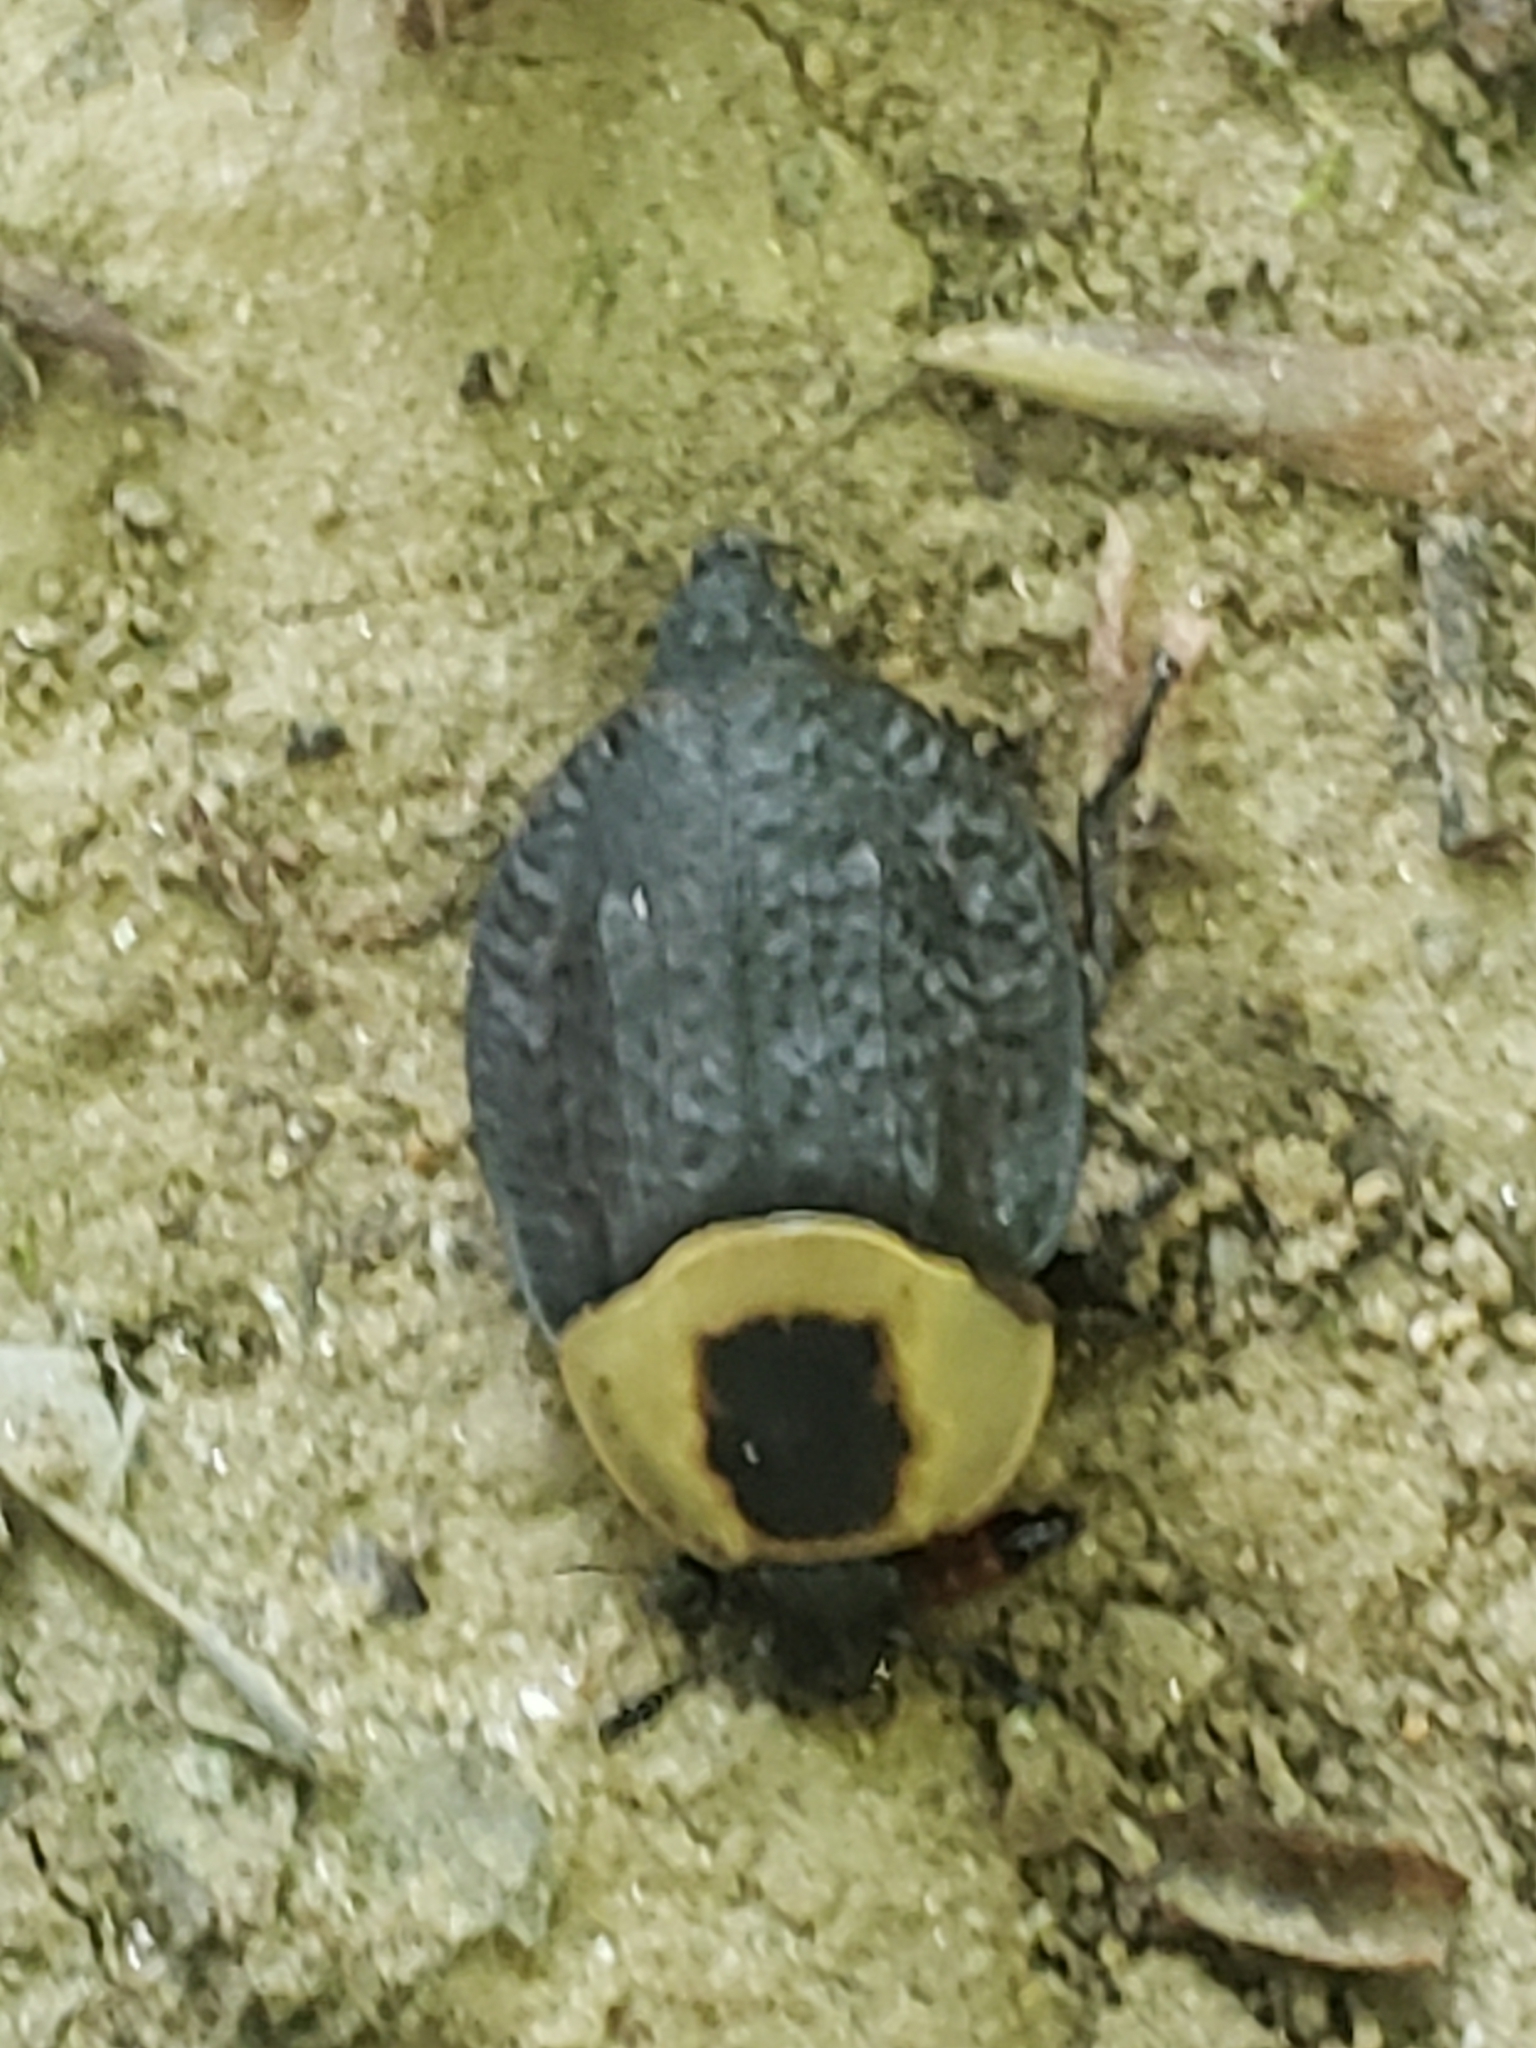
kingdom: Animalia
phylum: Arthropoda
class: Insecta
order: Coleoptera
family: Staphylinidae
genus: Necrophila
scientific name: Necrophila americana
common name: American carrion beetle
